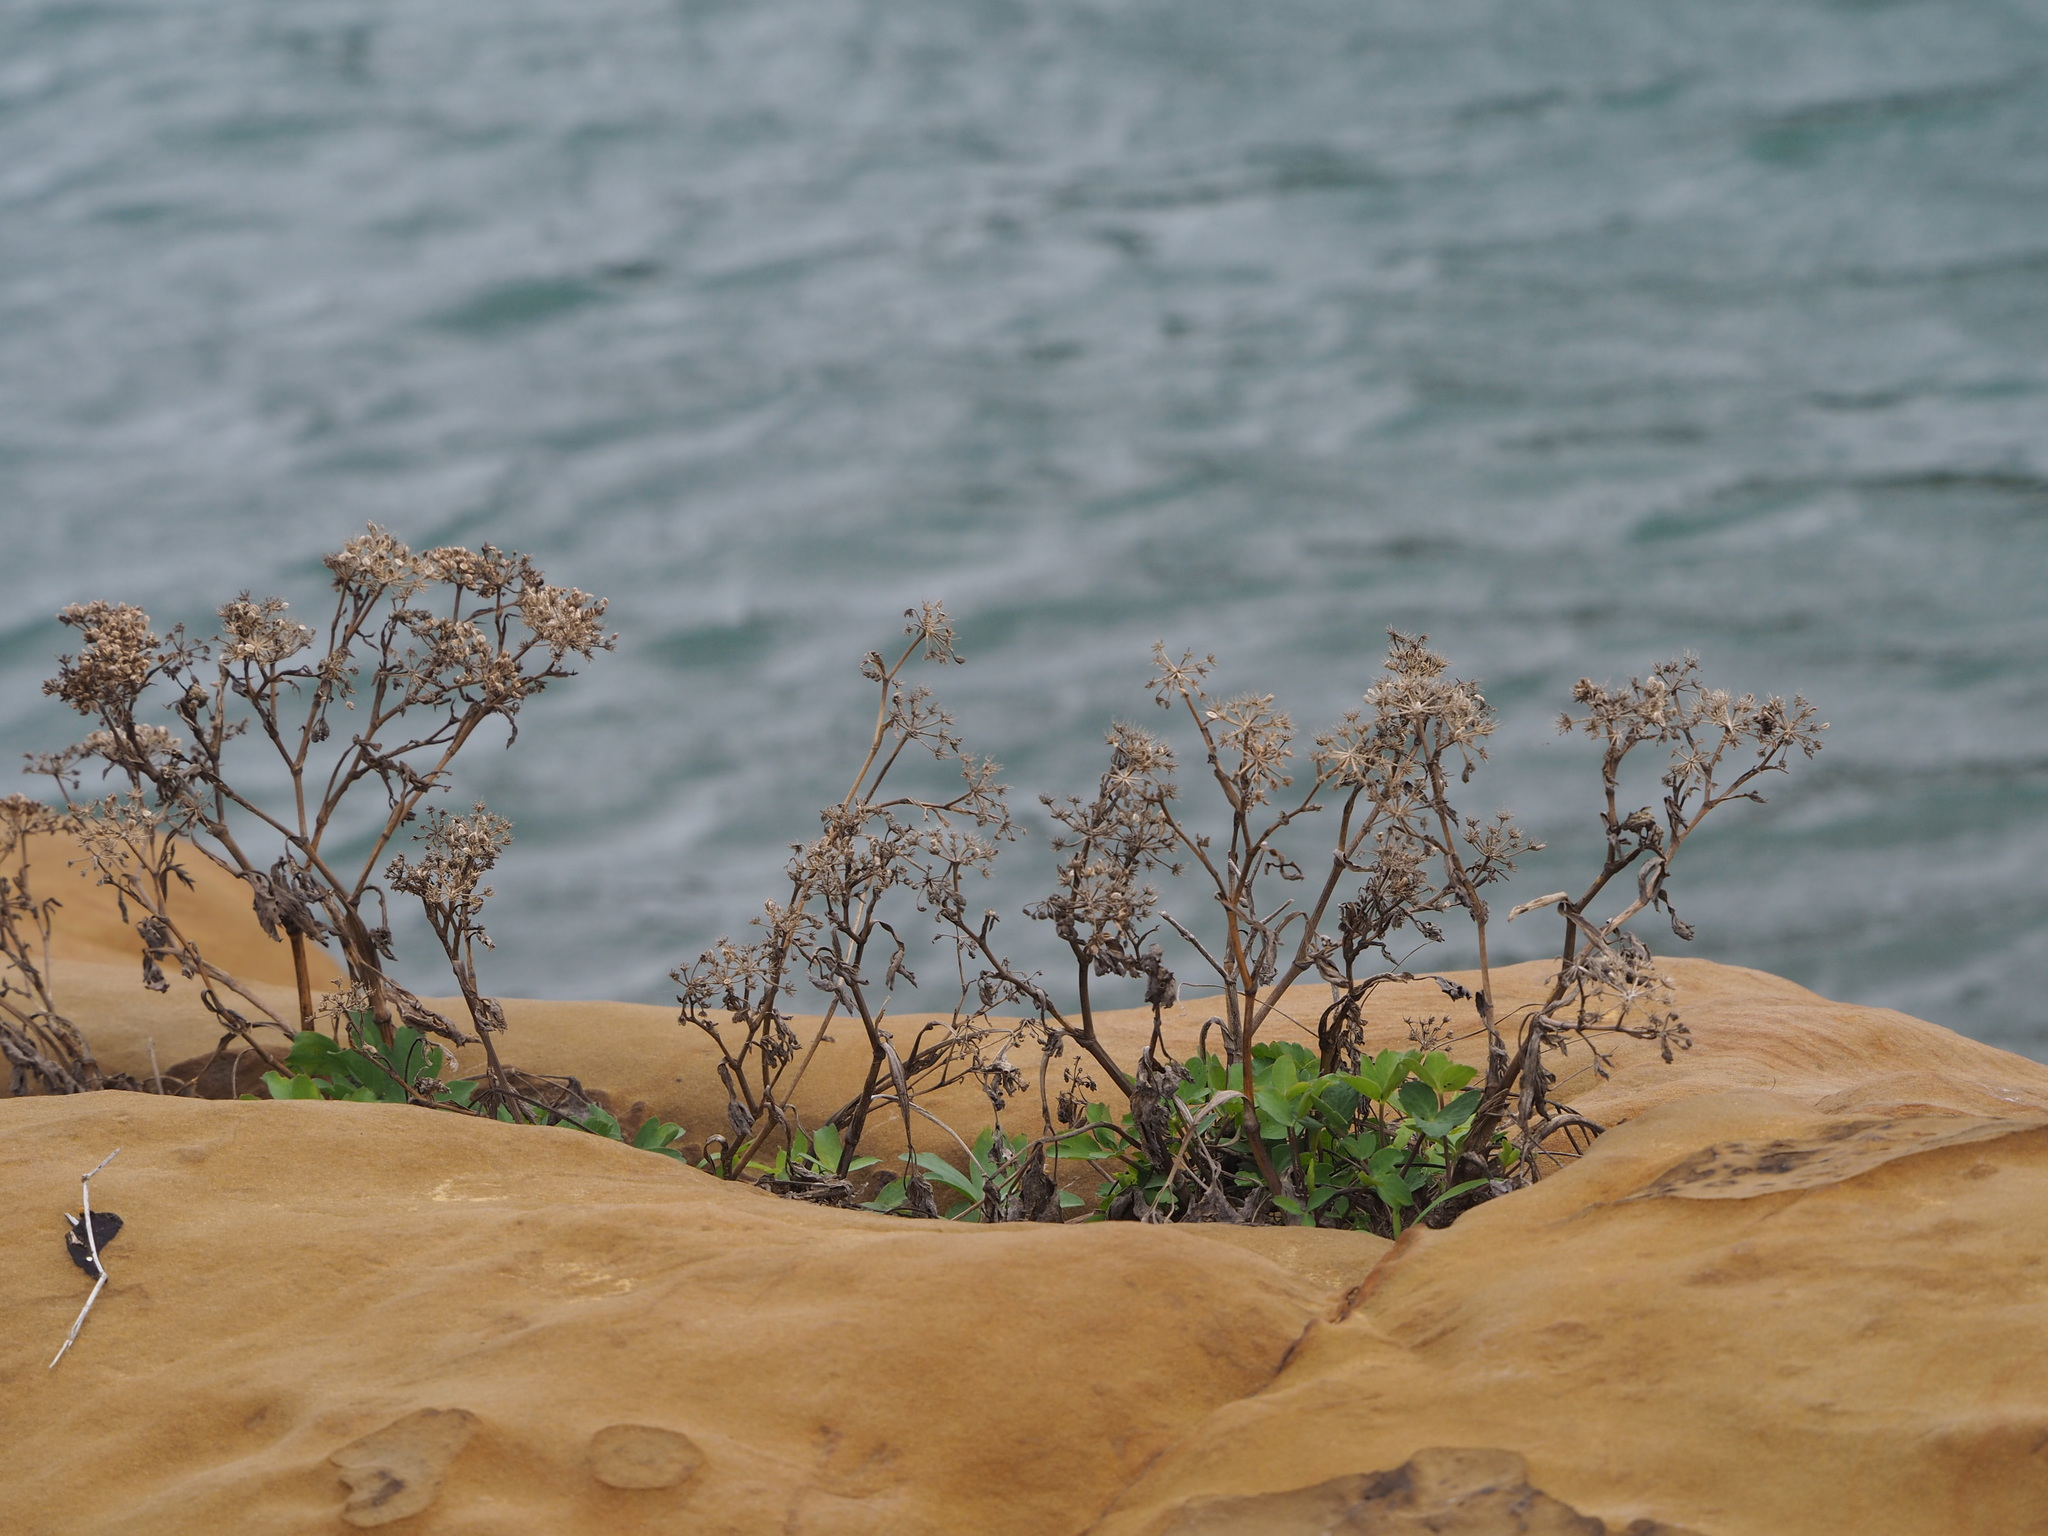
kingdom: Plantae
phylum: Tracheophyta
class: Magnoliopsida
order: Apiales
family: Apiaceae
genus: Peucedanum
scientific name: Peucedanum japonicum
